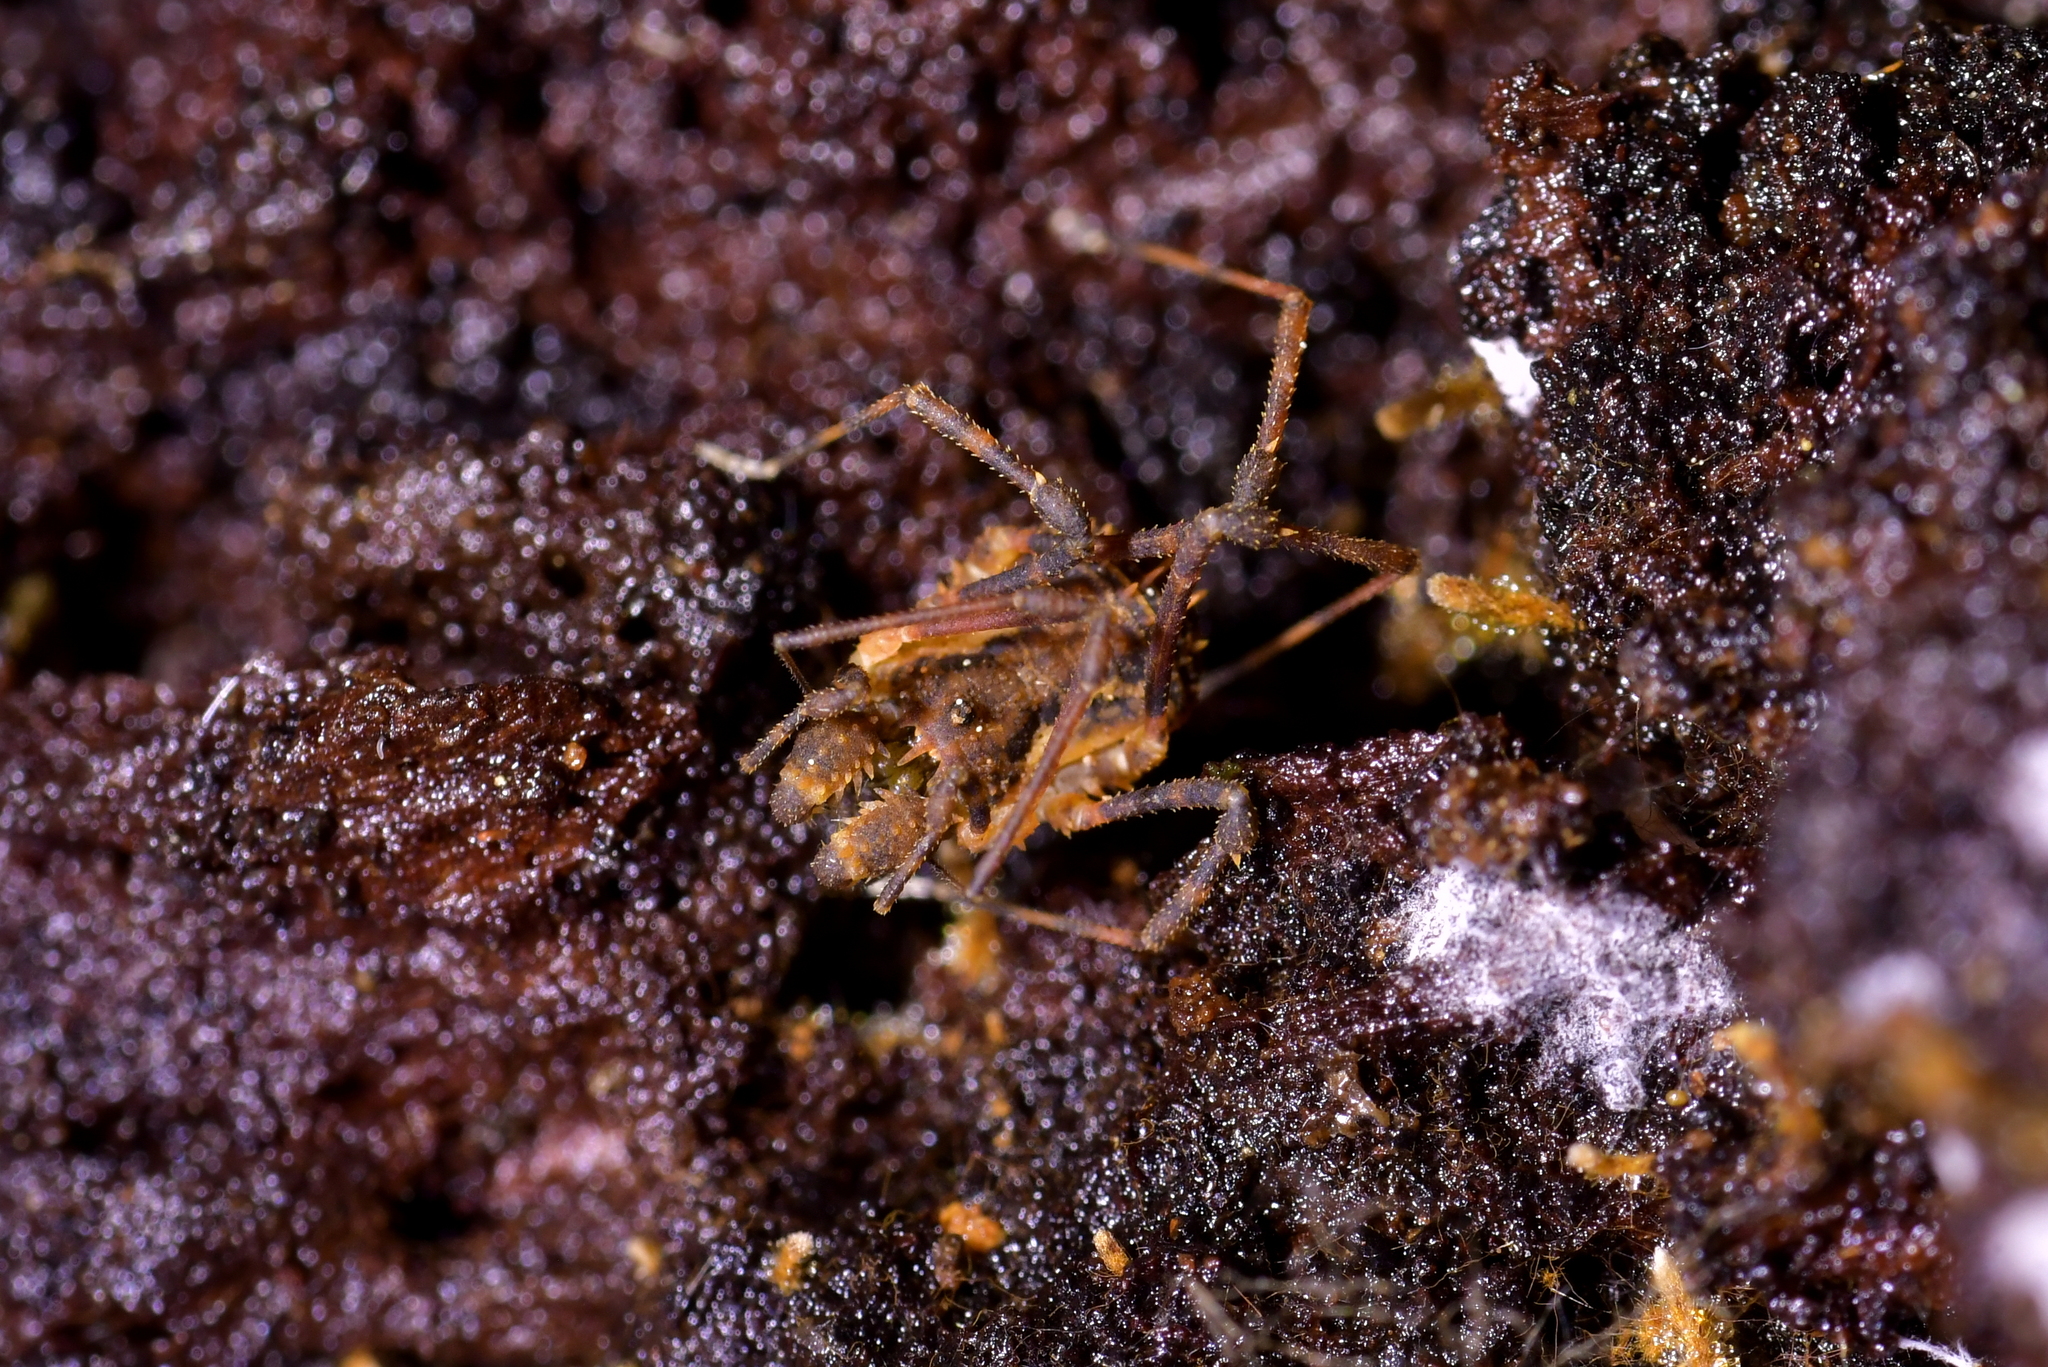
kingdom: Animalia
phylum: Arthropoda
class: Arachnida
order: Opiliones
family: Triaenonychidae
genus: Algidia
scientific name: Algidia nigriflava
